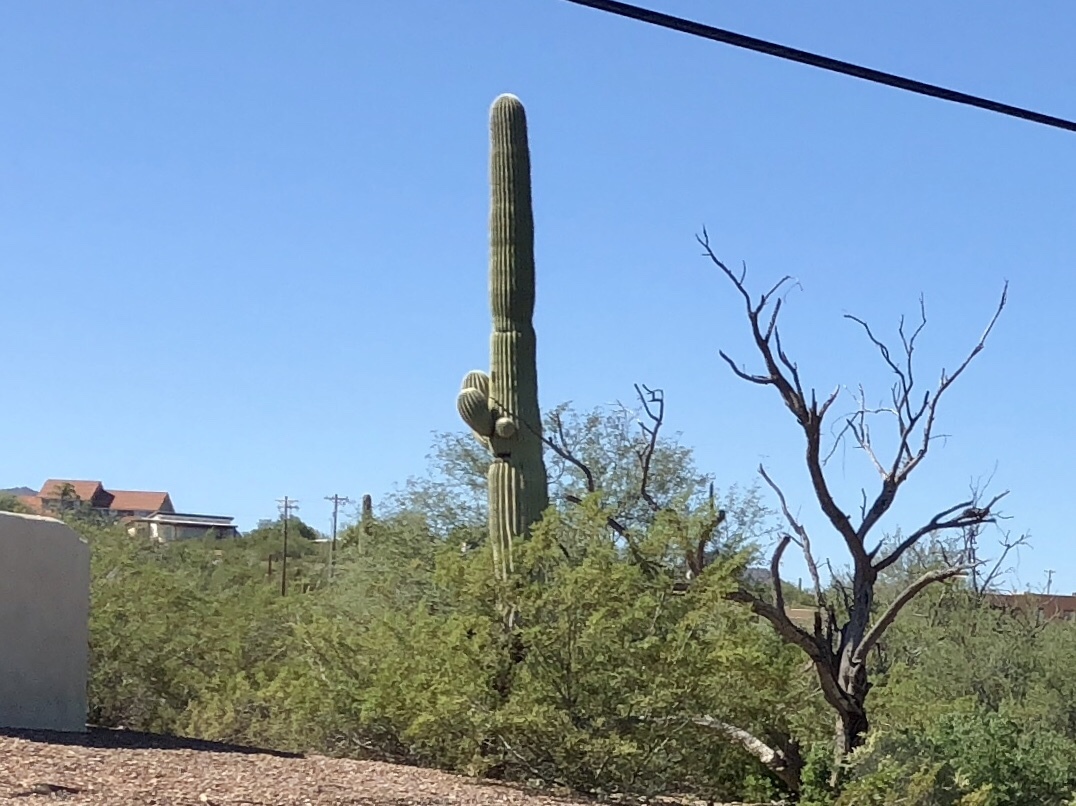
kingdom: Plantae
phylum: Tracheophyta
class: Magnoliopsida
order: Caryophyllales
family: Cactaceae
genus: Carnegiea
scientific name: Carnegiea gigantea
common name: Saguaro
